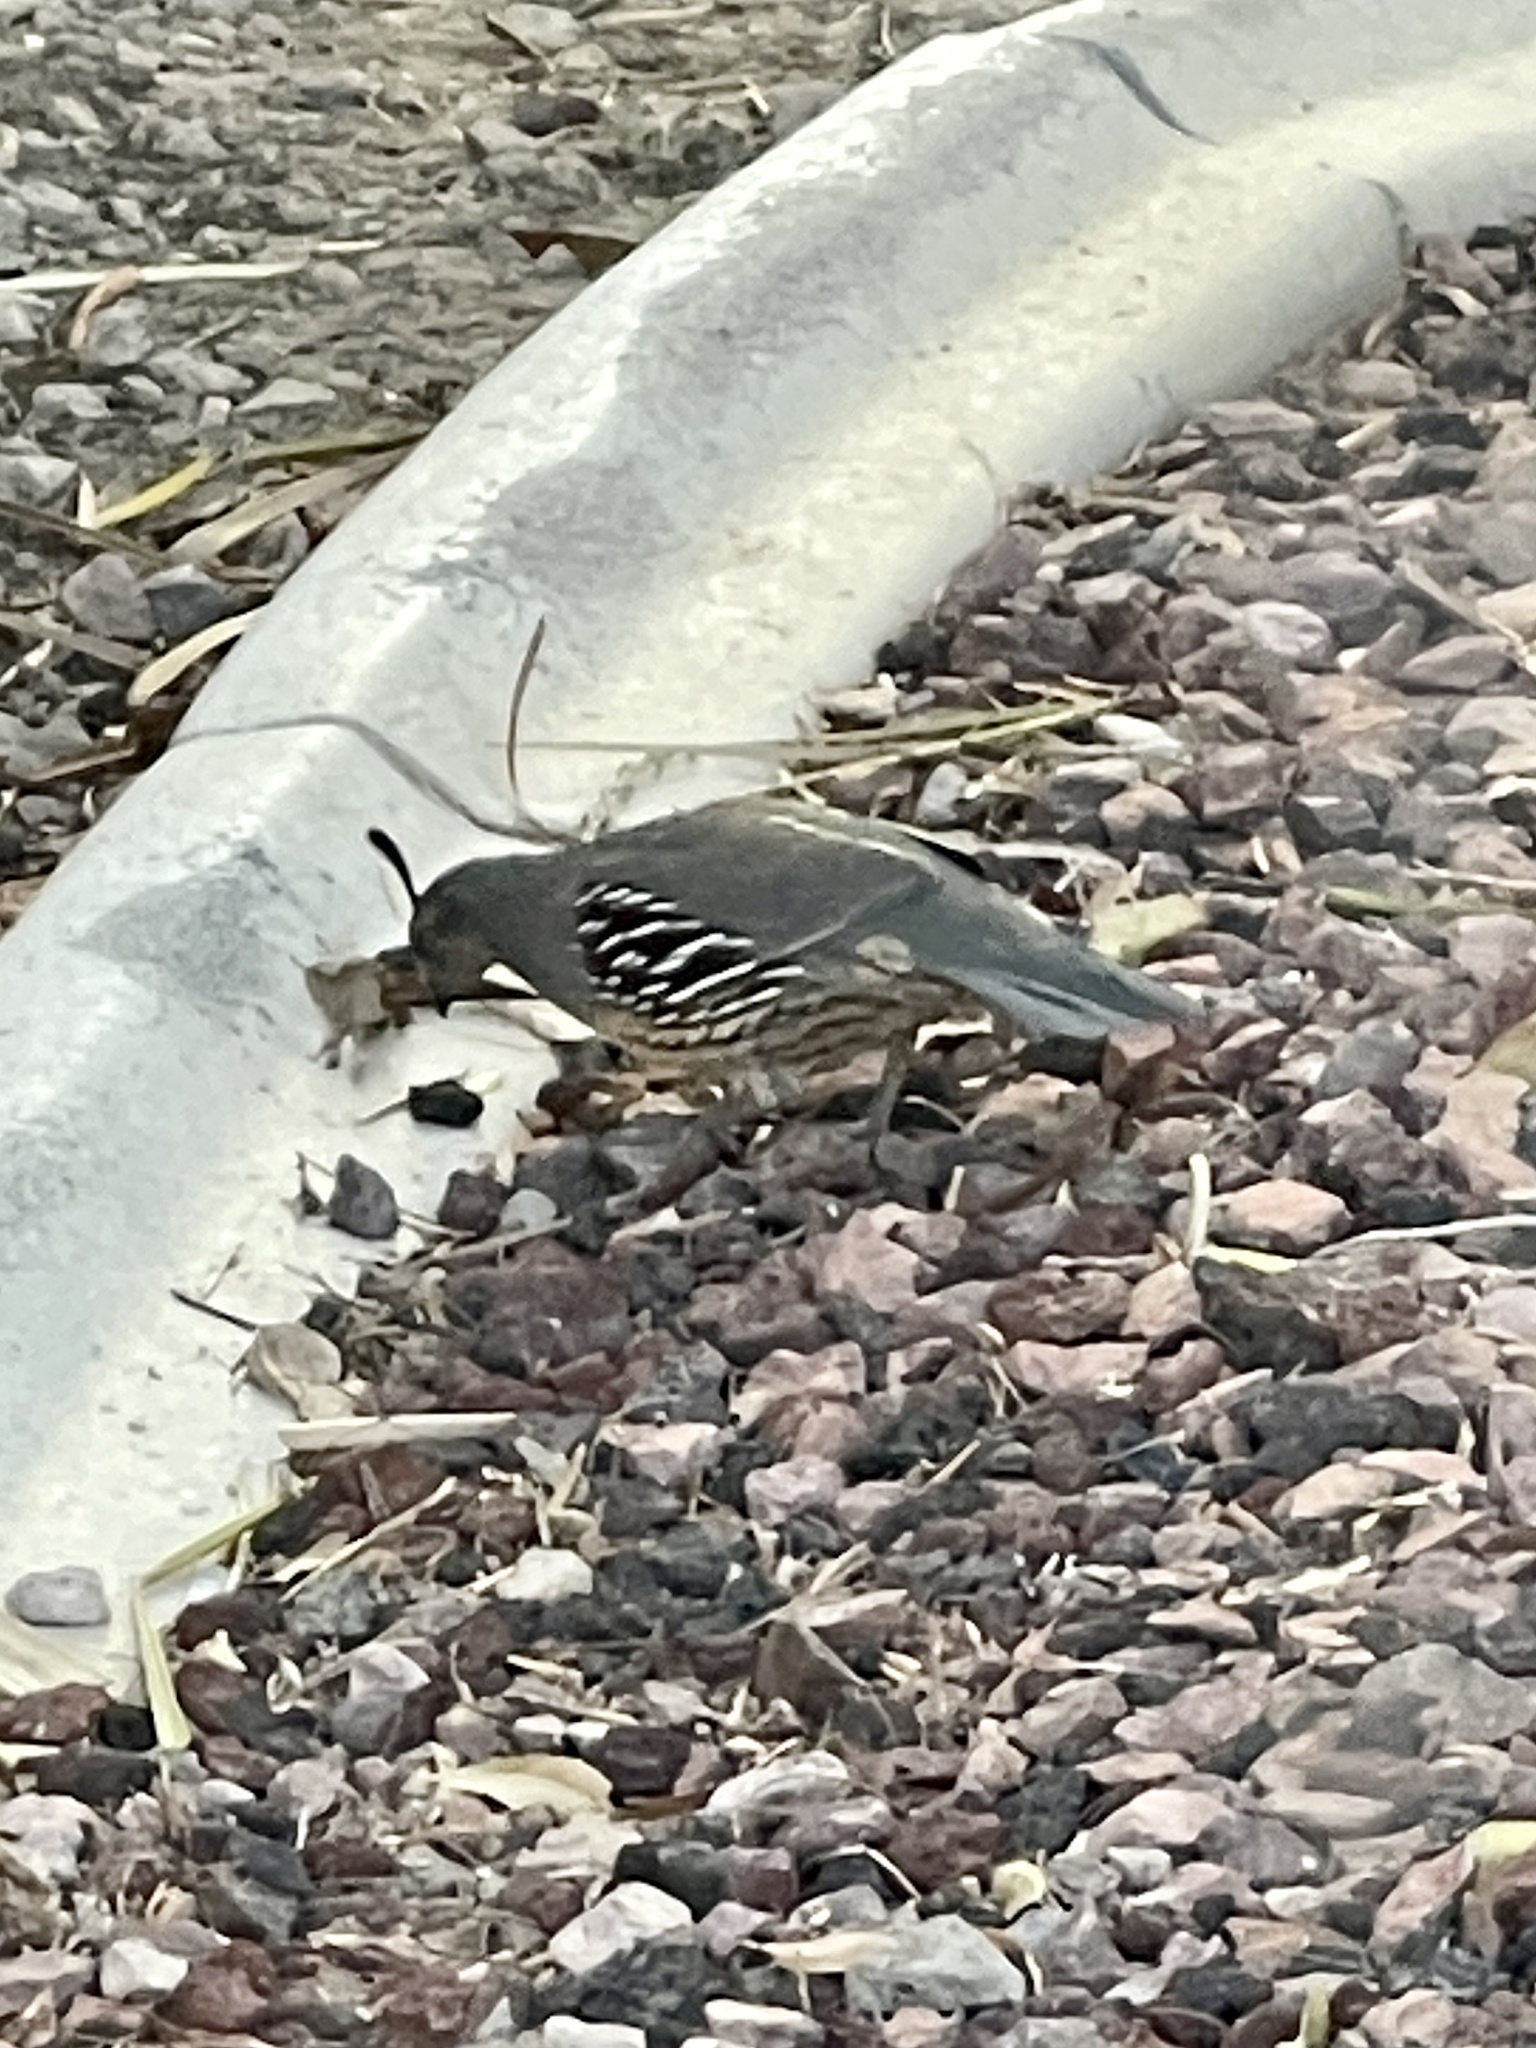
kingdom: Animalia
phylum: Chordata
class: Aves
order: Galliformes
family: Odontophoridae
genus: Callipepla
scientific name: Callipepla gambelii
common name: Gambel's quail
